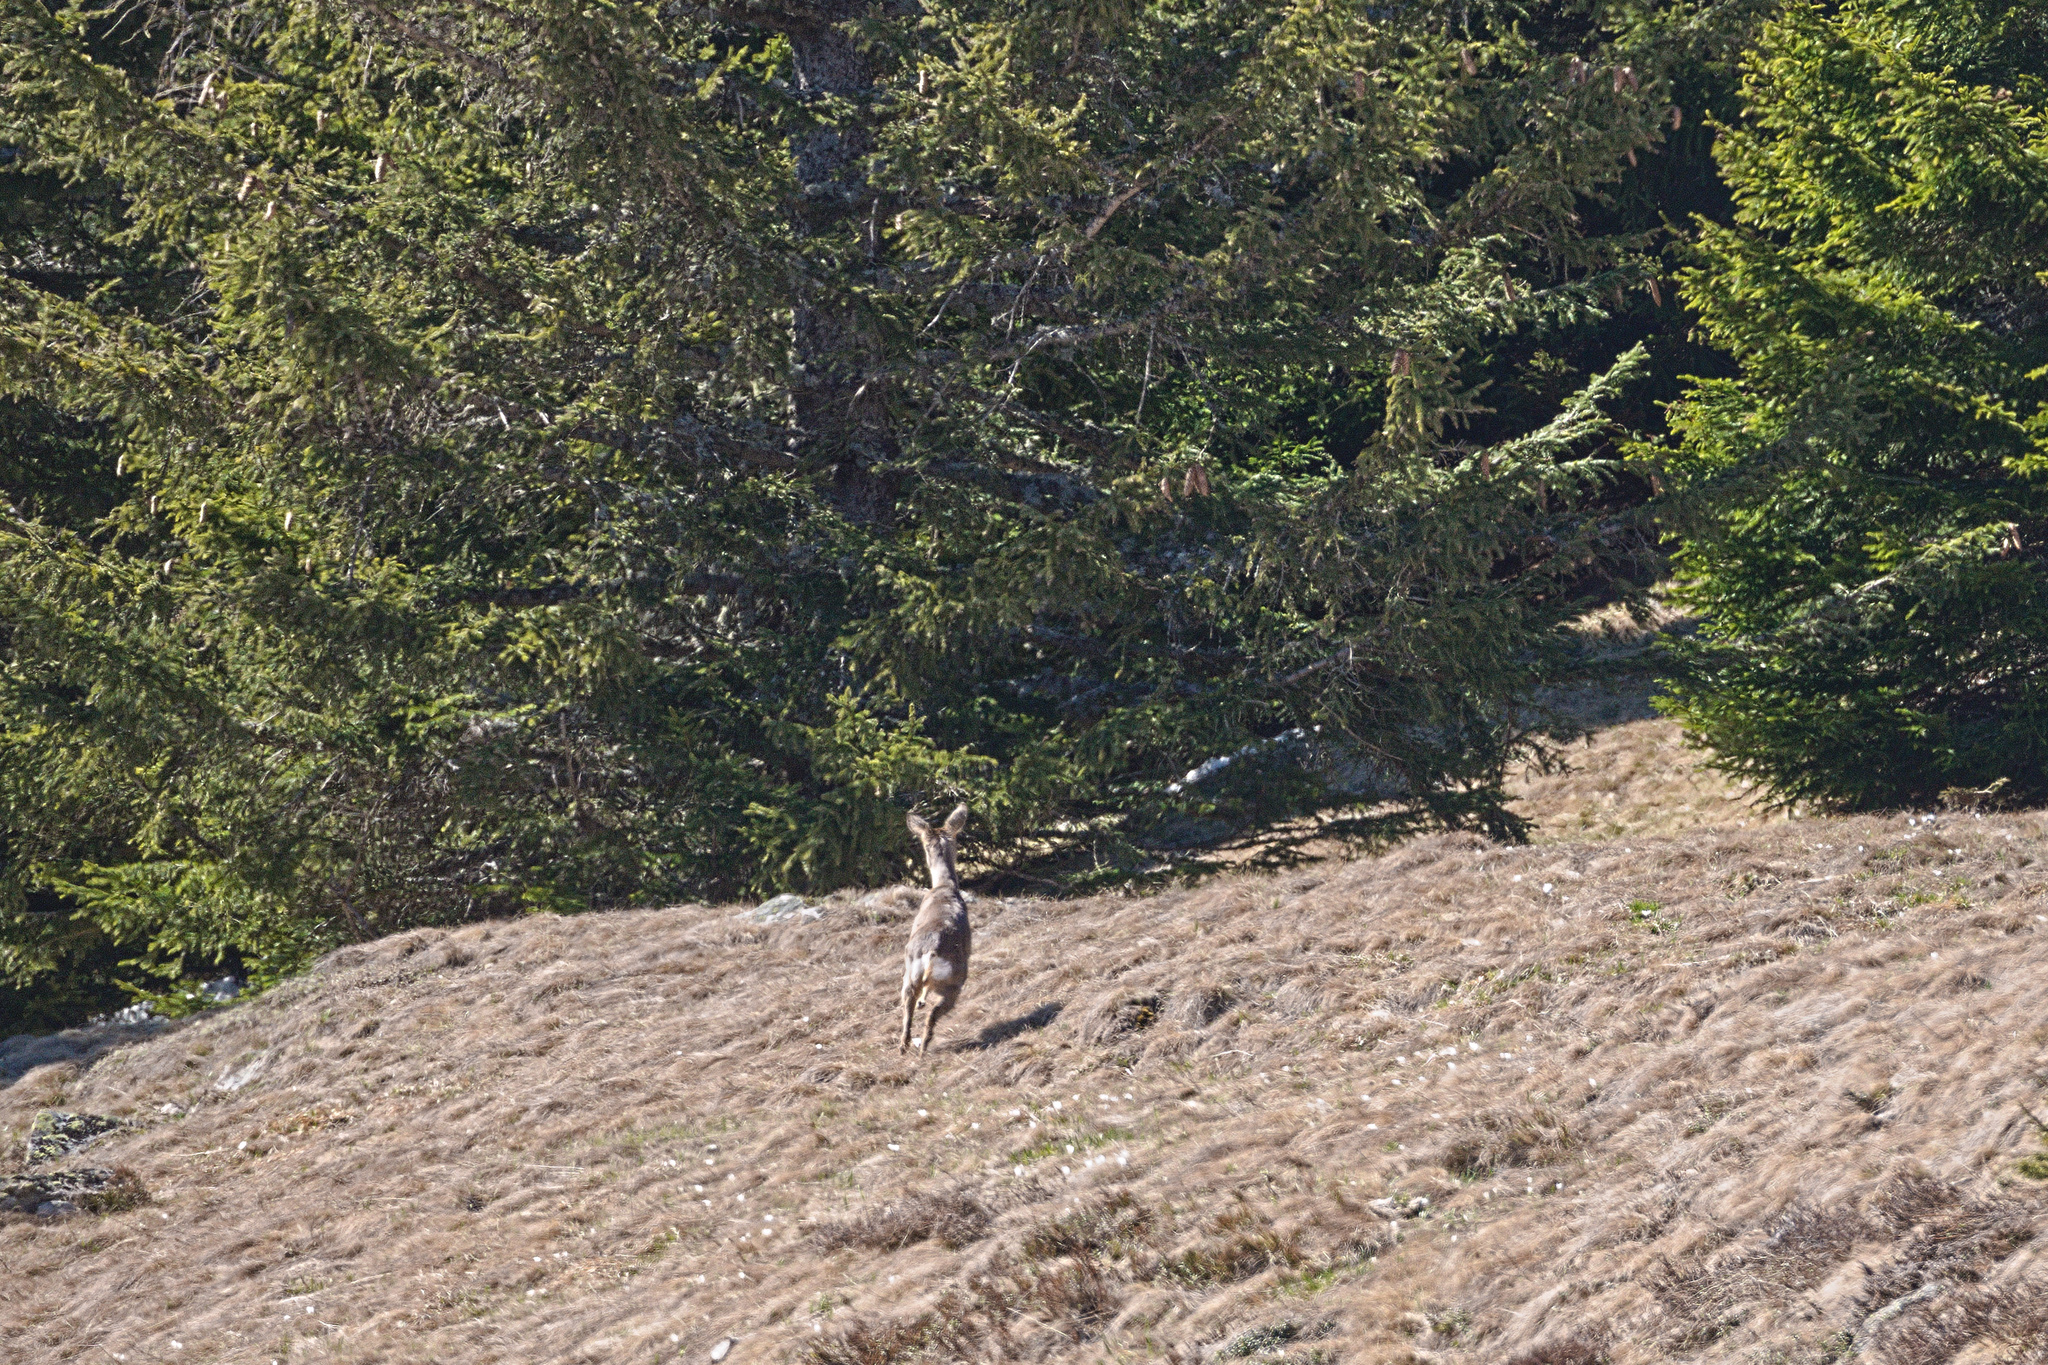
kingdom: Animalia
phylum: Chordata
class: Mammalia
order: Artiodactyla
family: Cervidae
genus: Capreolus
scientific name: Capreolus capreolus
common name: Western roe deer
